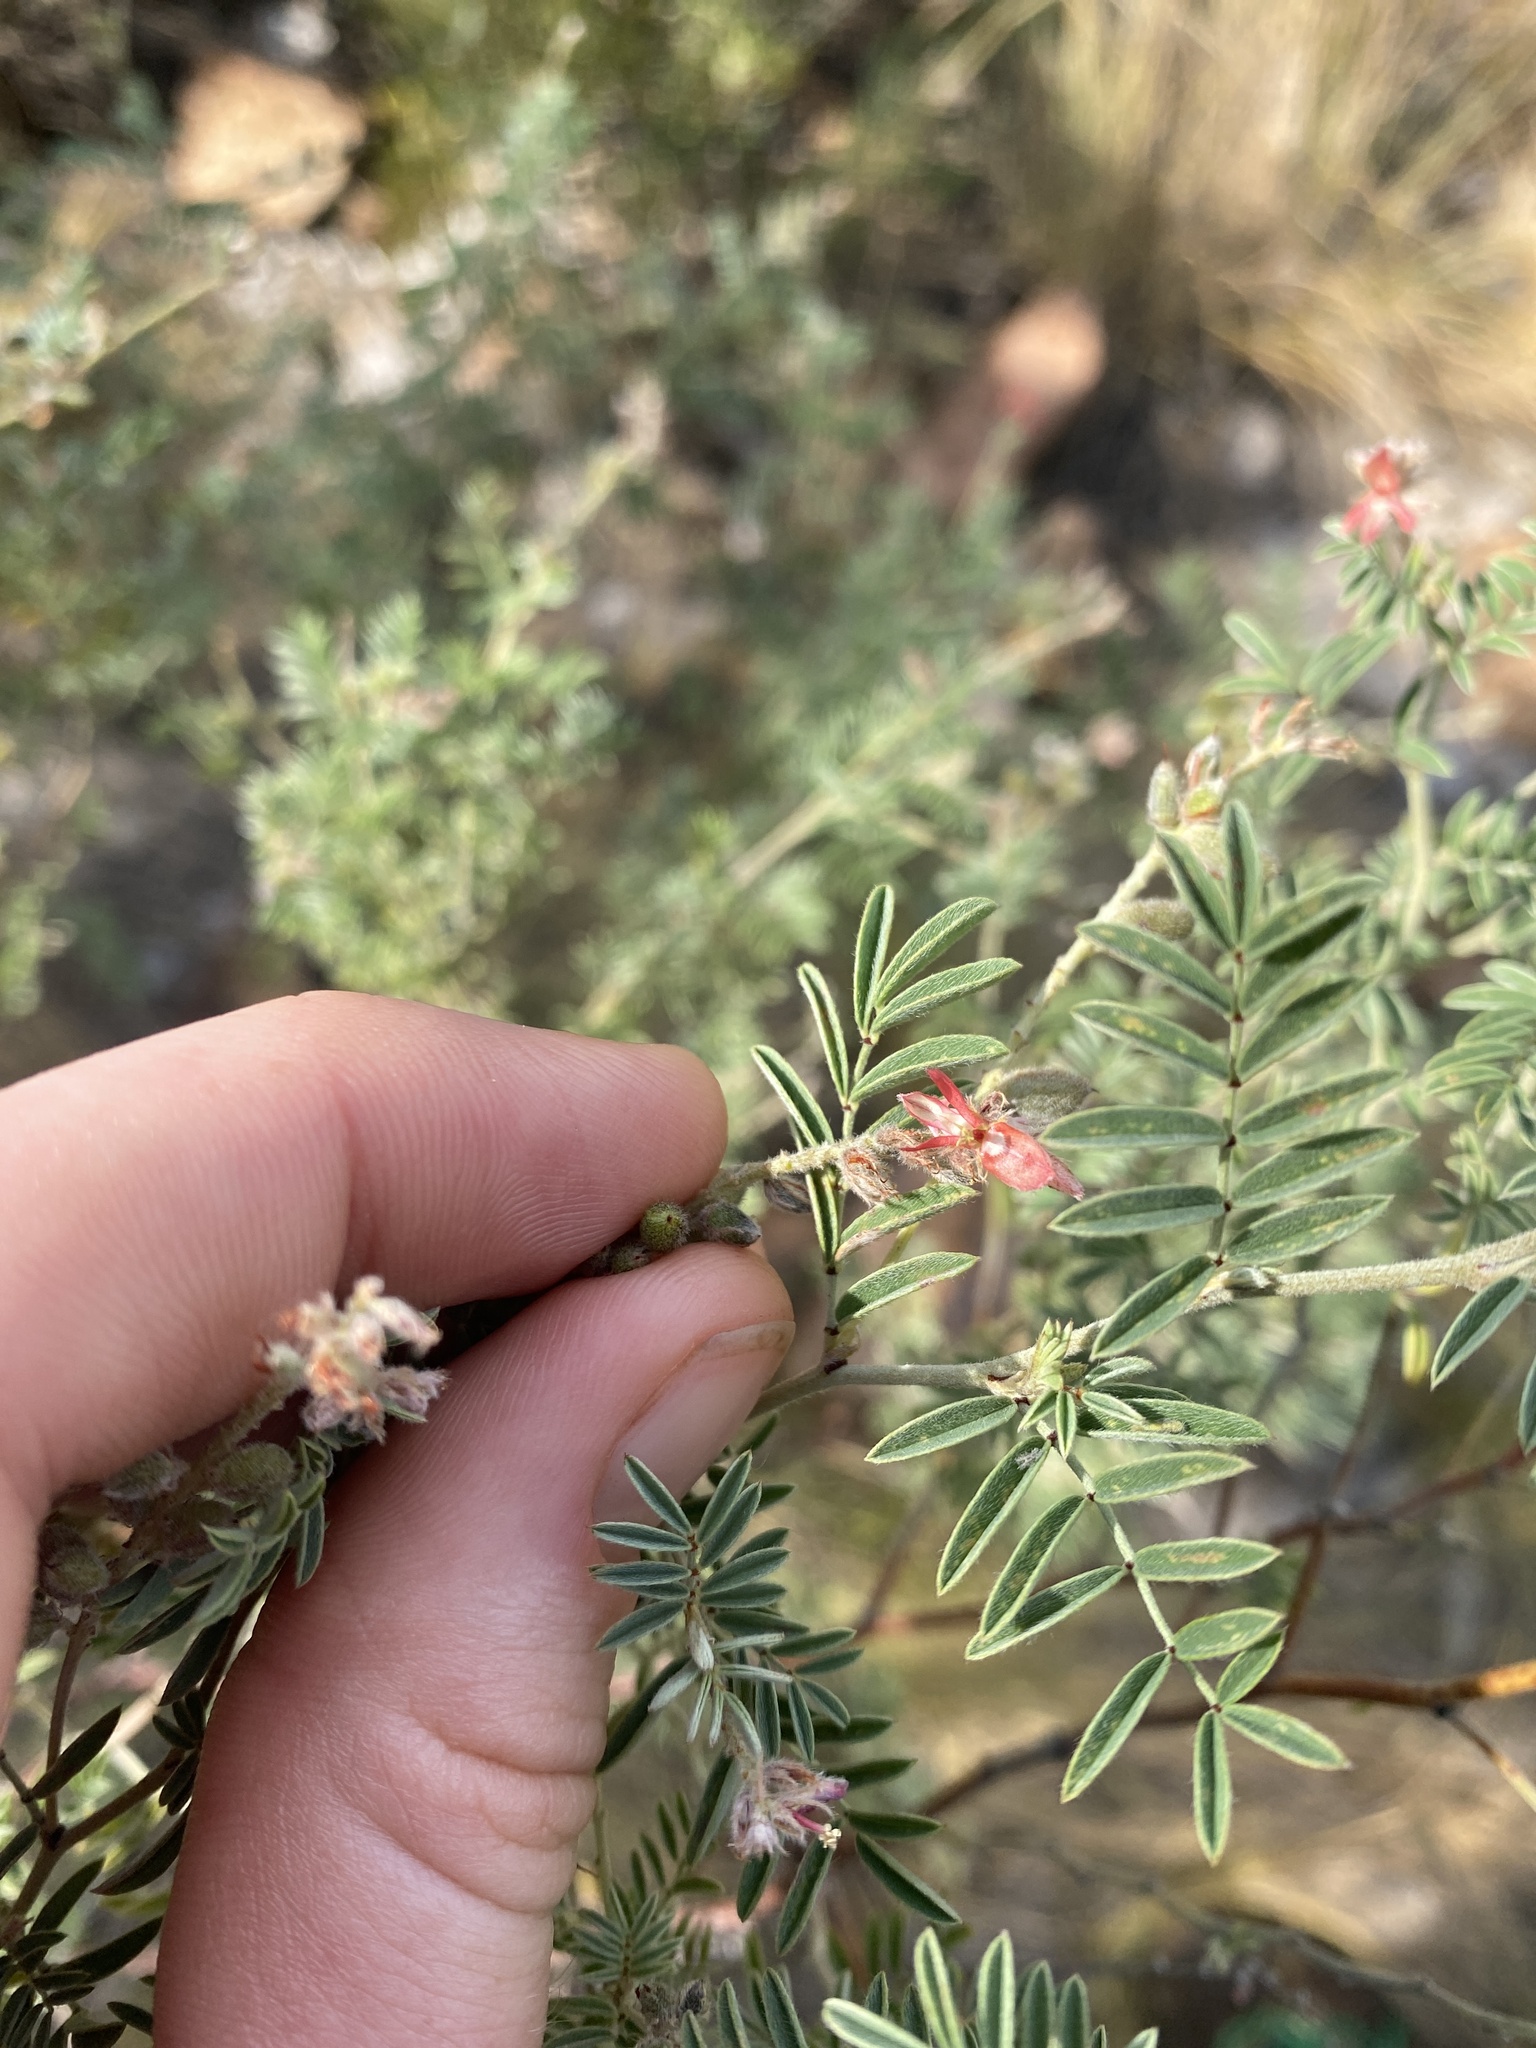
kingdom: Plantae
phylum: Tracheophyta
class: Magnoliopsida
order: Fabales
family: Fabaceae
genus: Indigofera
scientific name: Indigofera melanadenia
